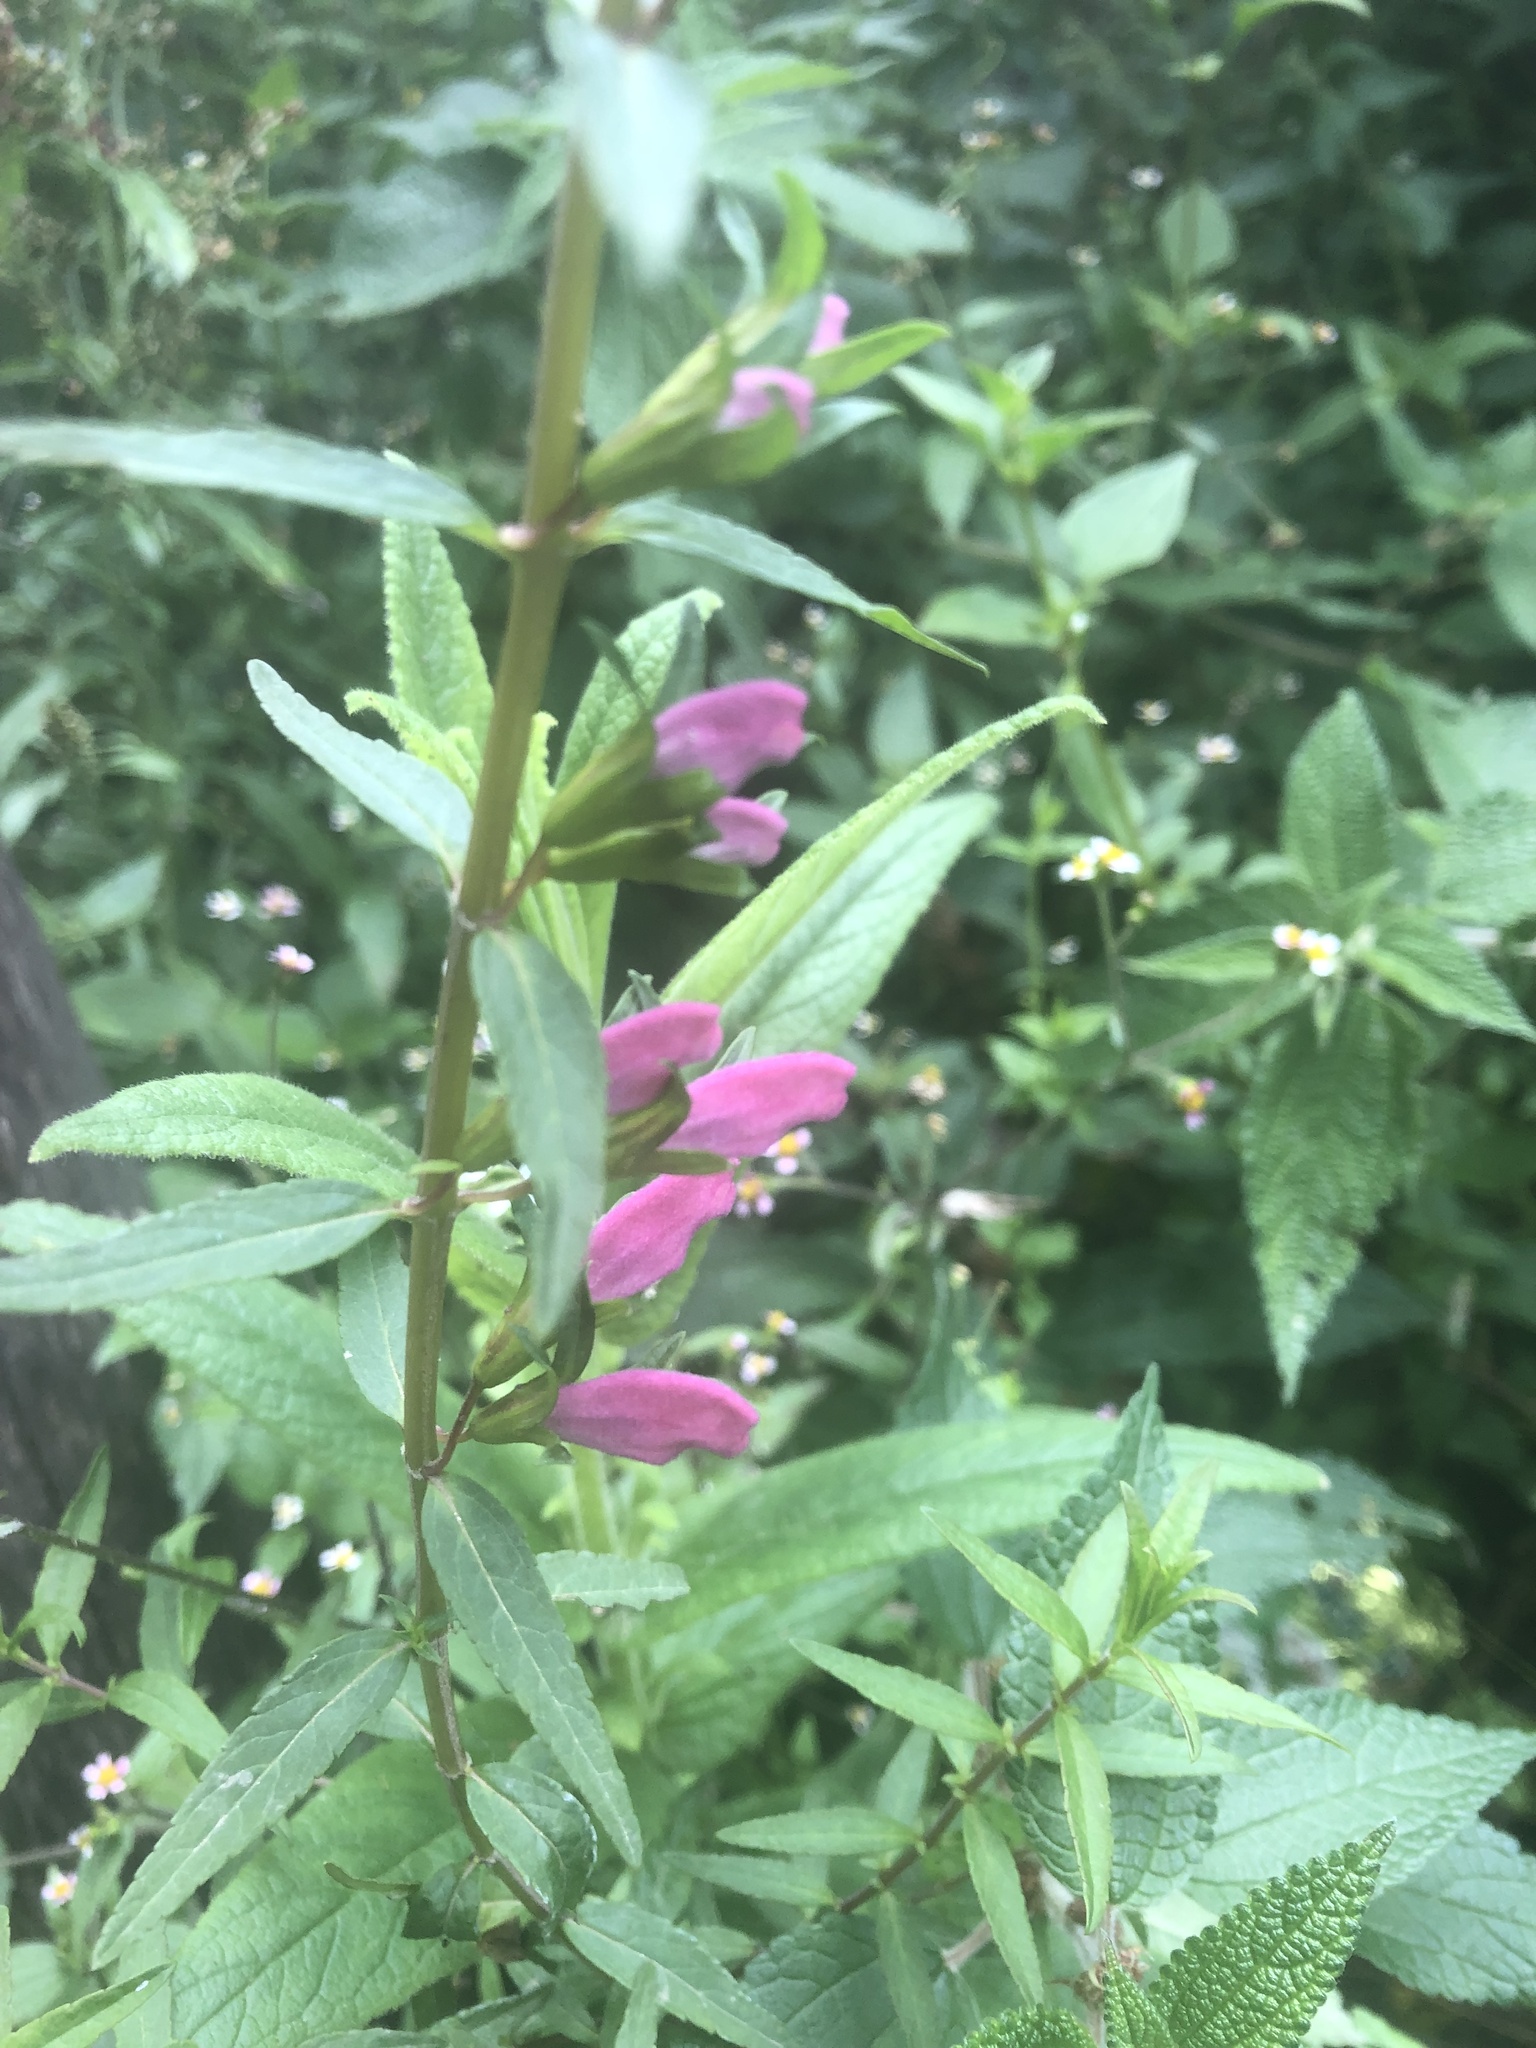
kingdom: Plantae
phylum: Tracheophyta
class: Magnoliopsida
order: Lamiales
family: Orobanchaceae
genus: Lamourouxia
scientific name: Lamourouxia virgata
